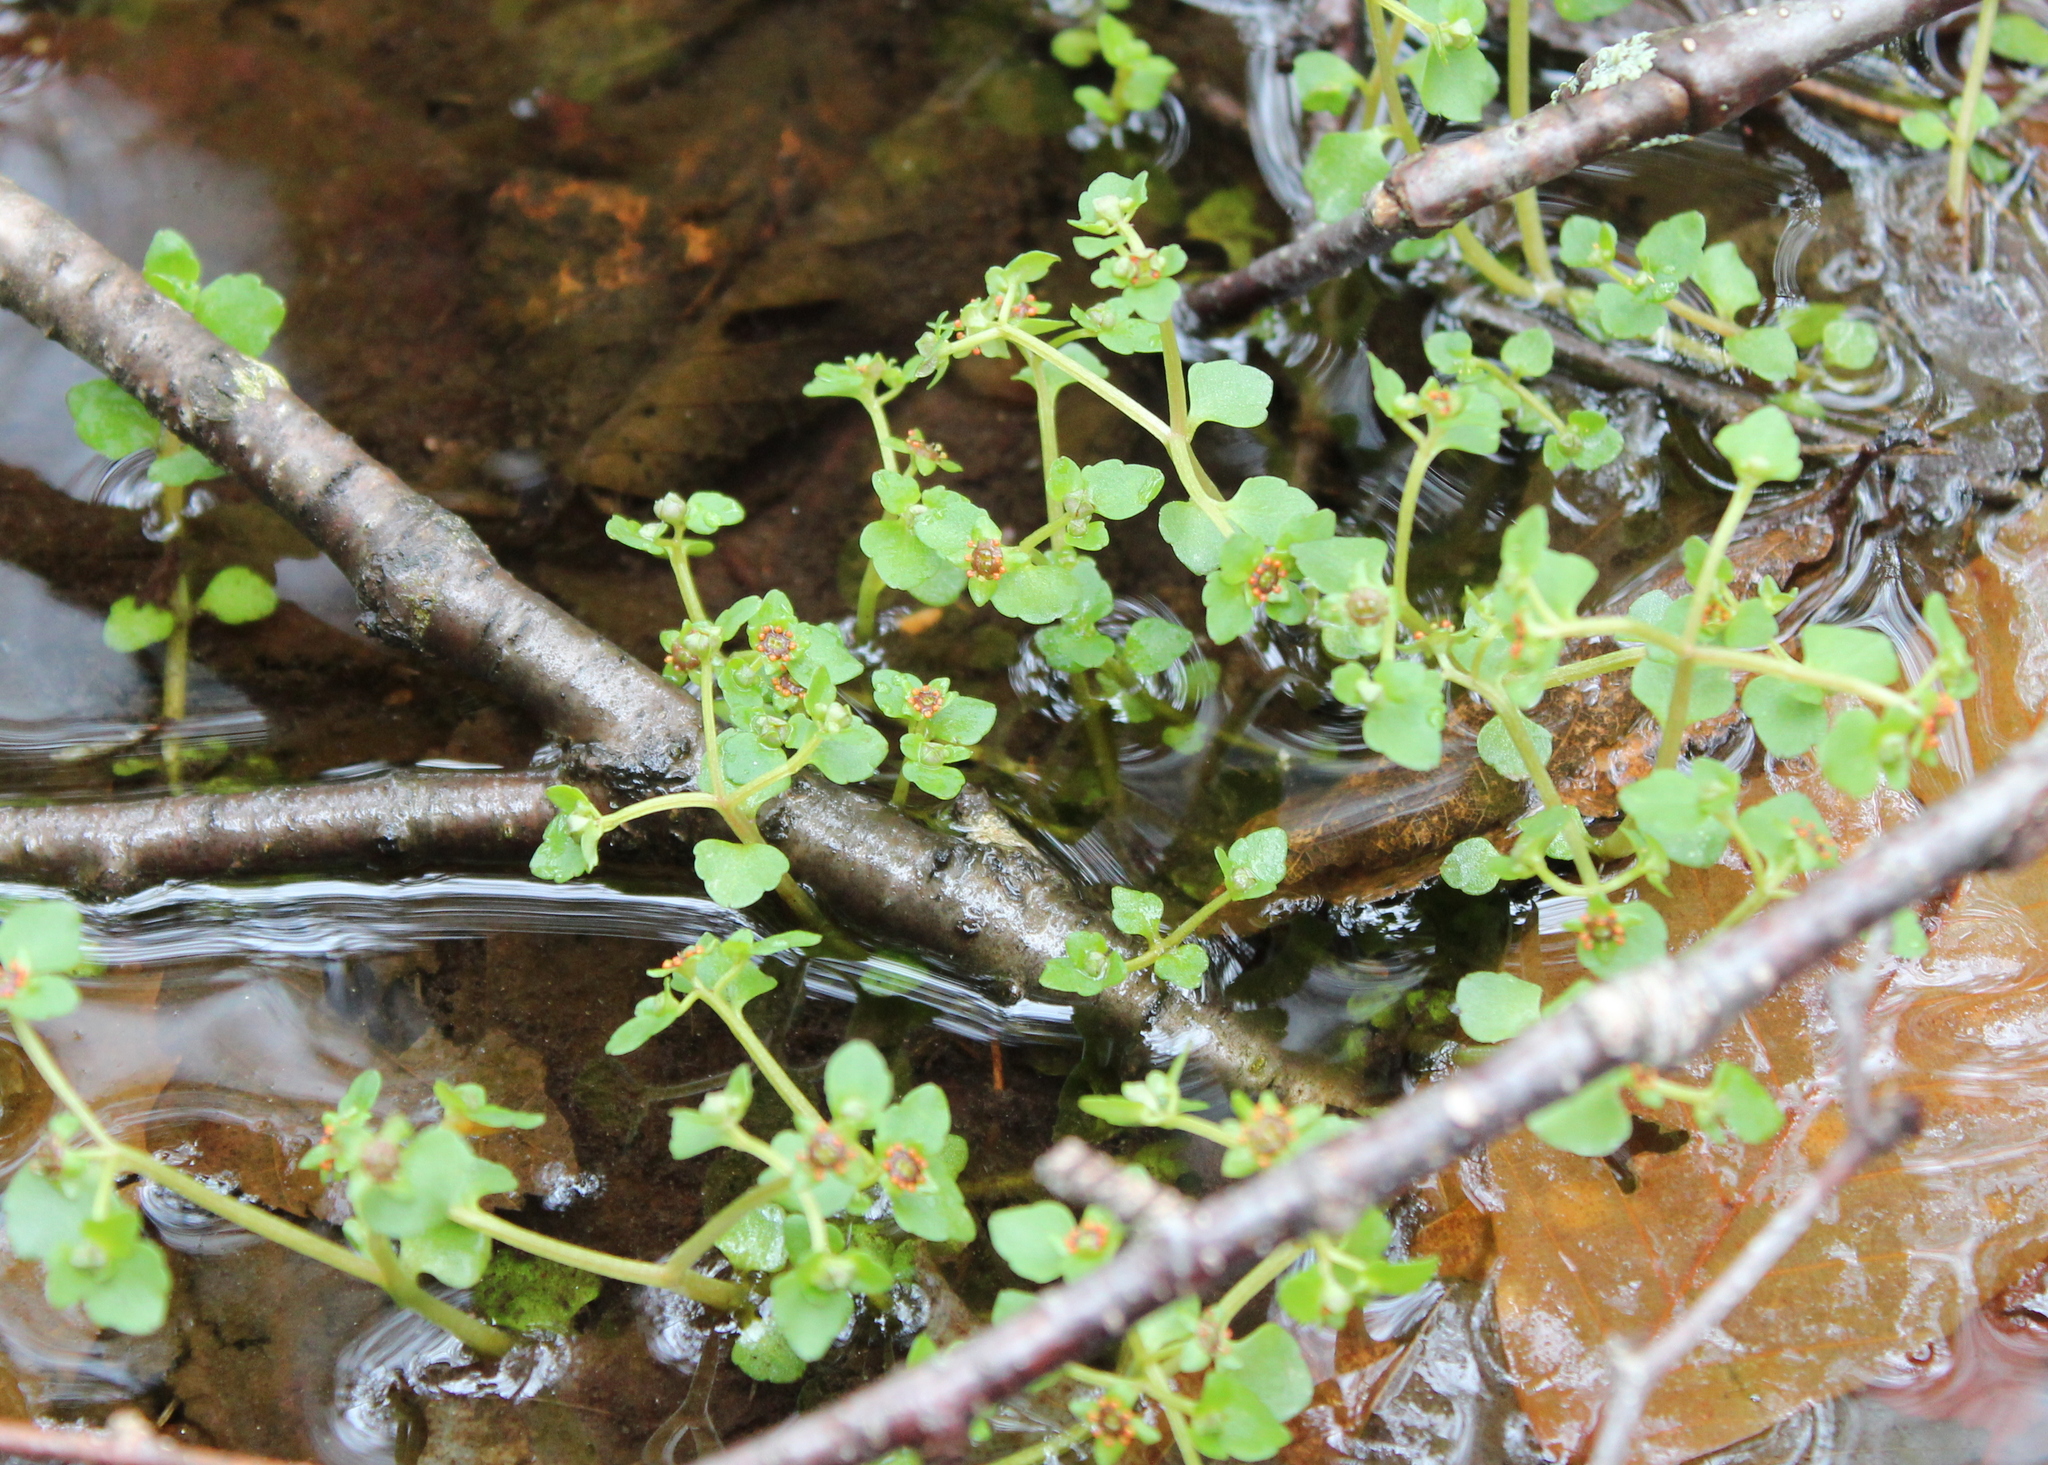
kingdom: Plantae
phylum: Tracheophyta
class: Magnoliopsida
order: Saxifragales
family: Saxifragaceae
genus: Chrysosplenium
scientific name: Chrysosplenium americanum
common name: American golden-saxifrage
